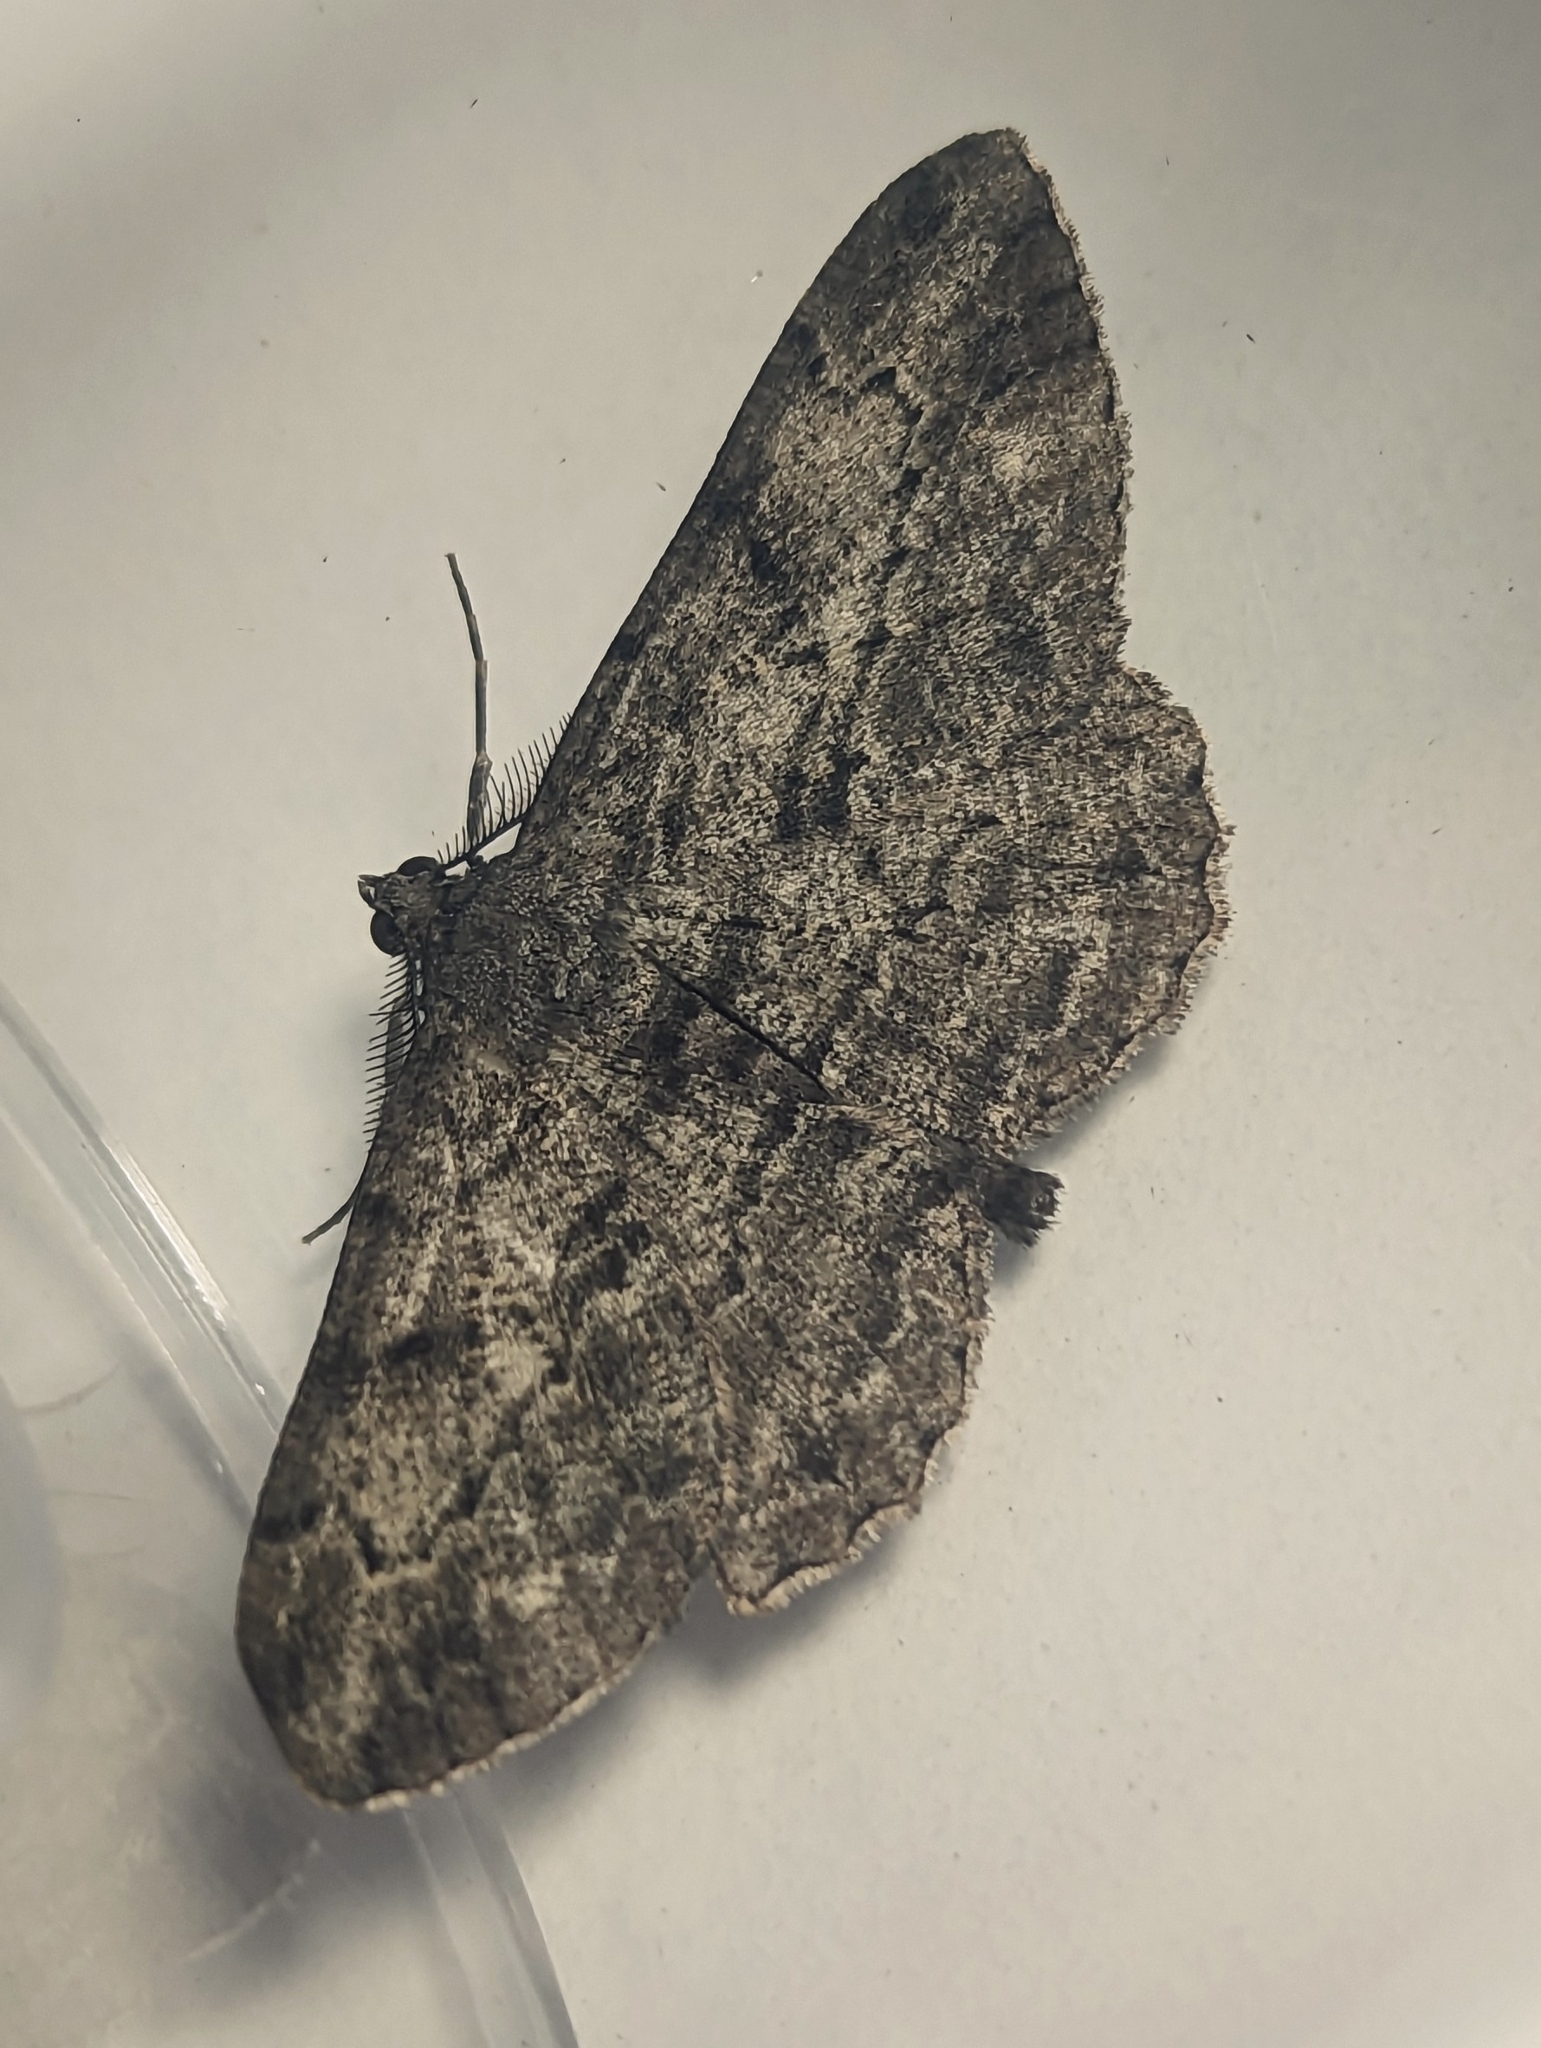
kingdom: Animalia
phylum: Arthropoda
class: Insecta
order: Lepidoptera
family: Geometridae
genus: Peribatodes
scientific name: Peribatodes rhomboidaria
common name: Willow beauty
